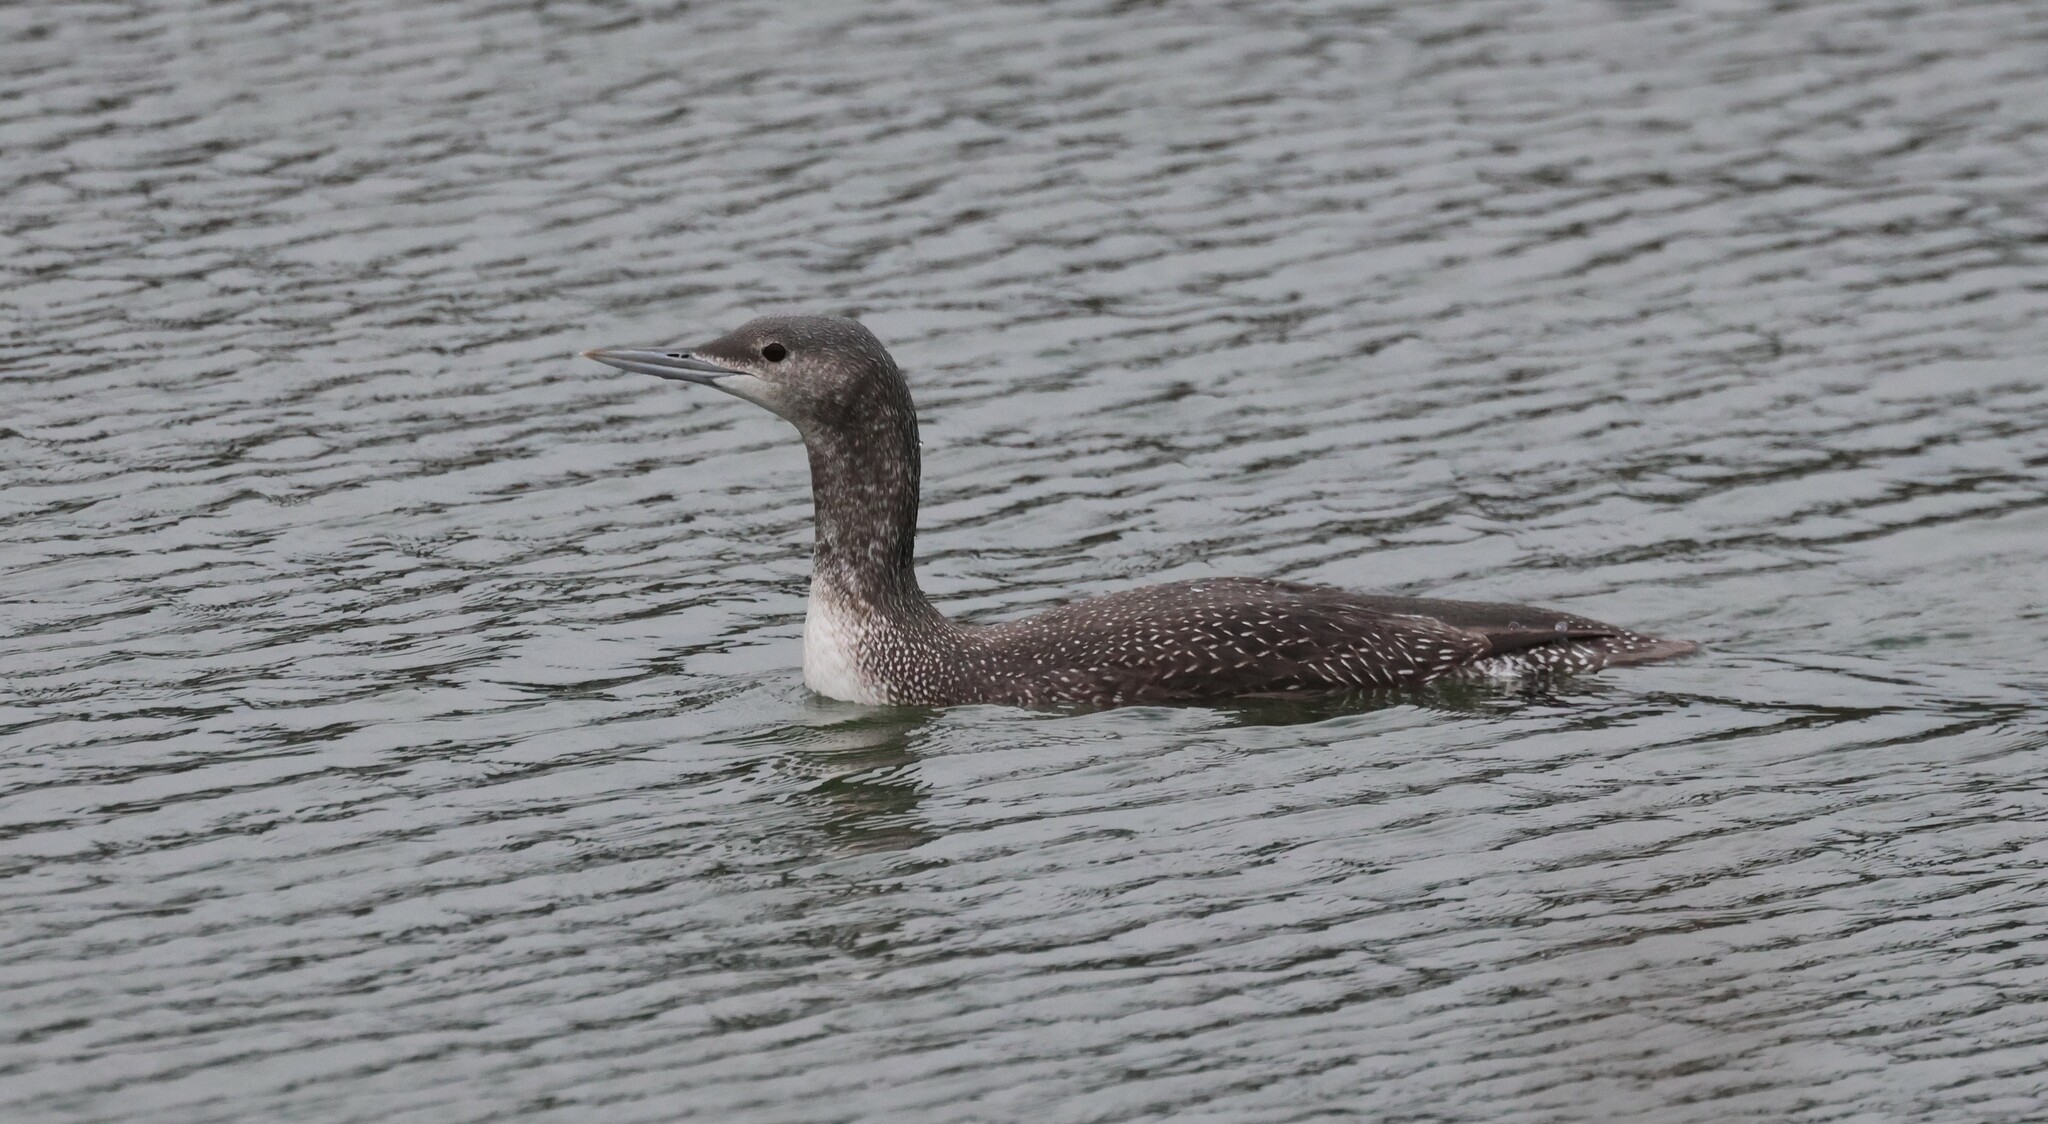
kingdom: Animalia
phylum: Chordata
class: Aves
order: Gaviiformes
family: Gaviidae
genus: Gavia
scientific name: Gavia stellata
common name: Red-throated loon
